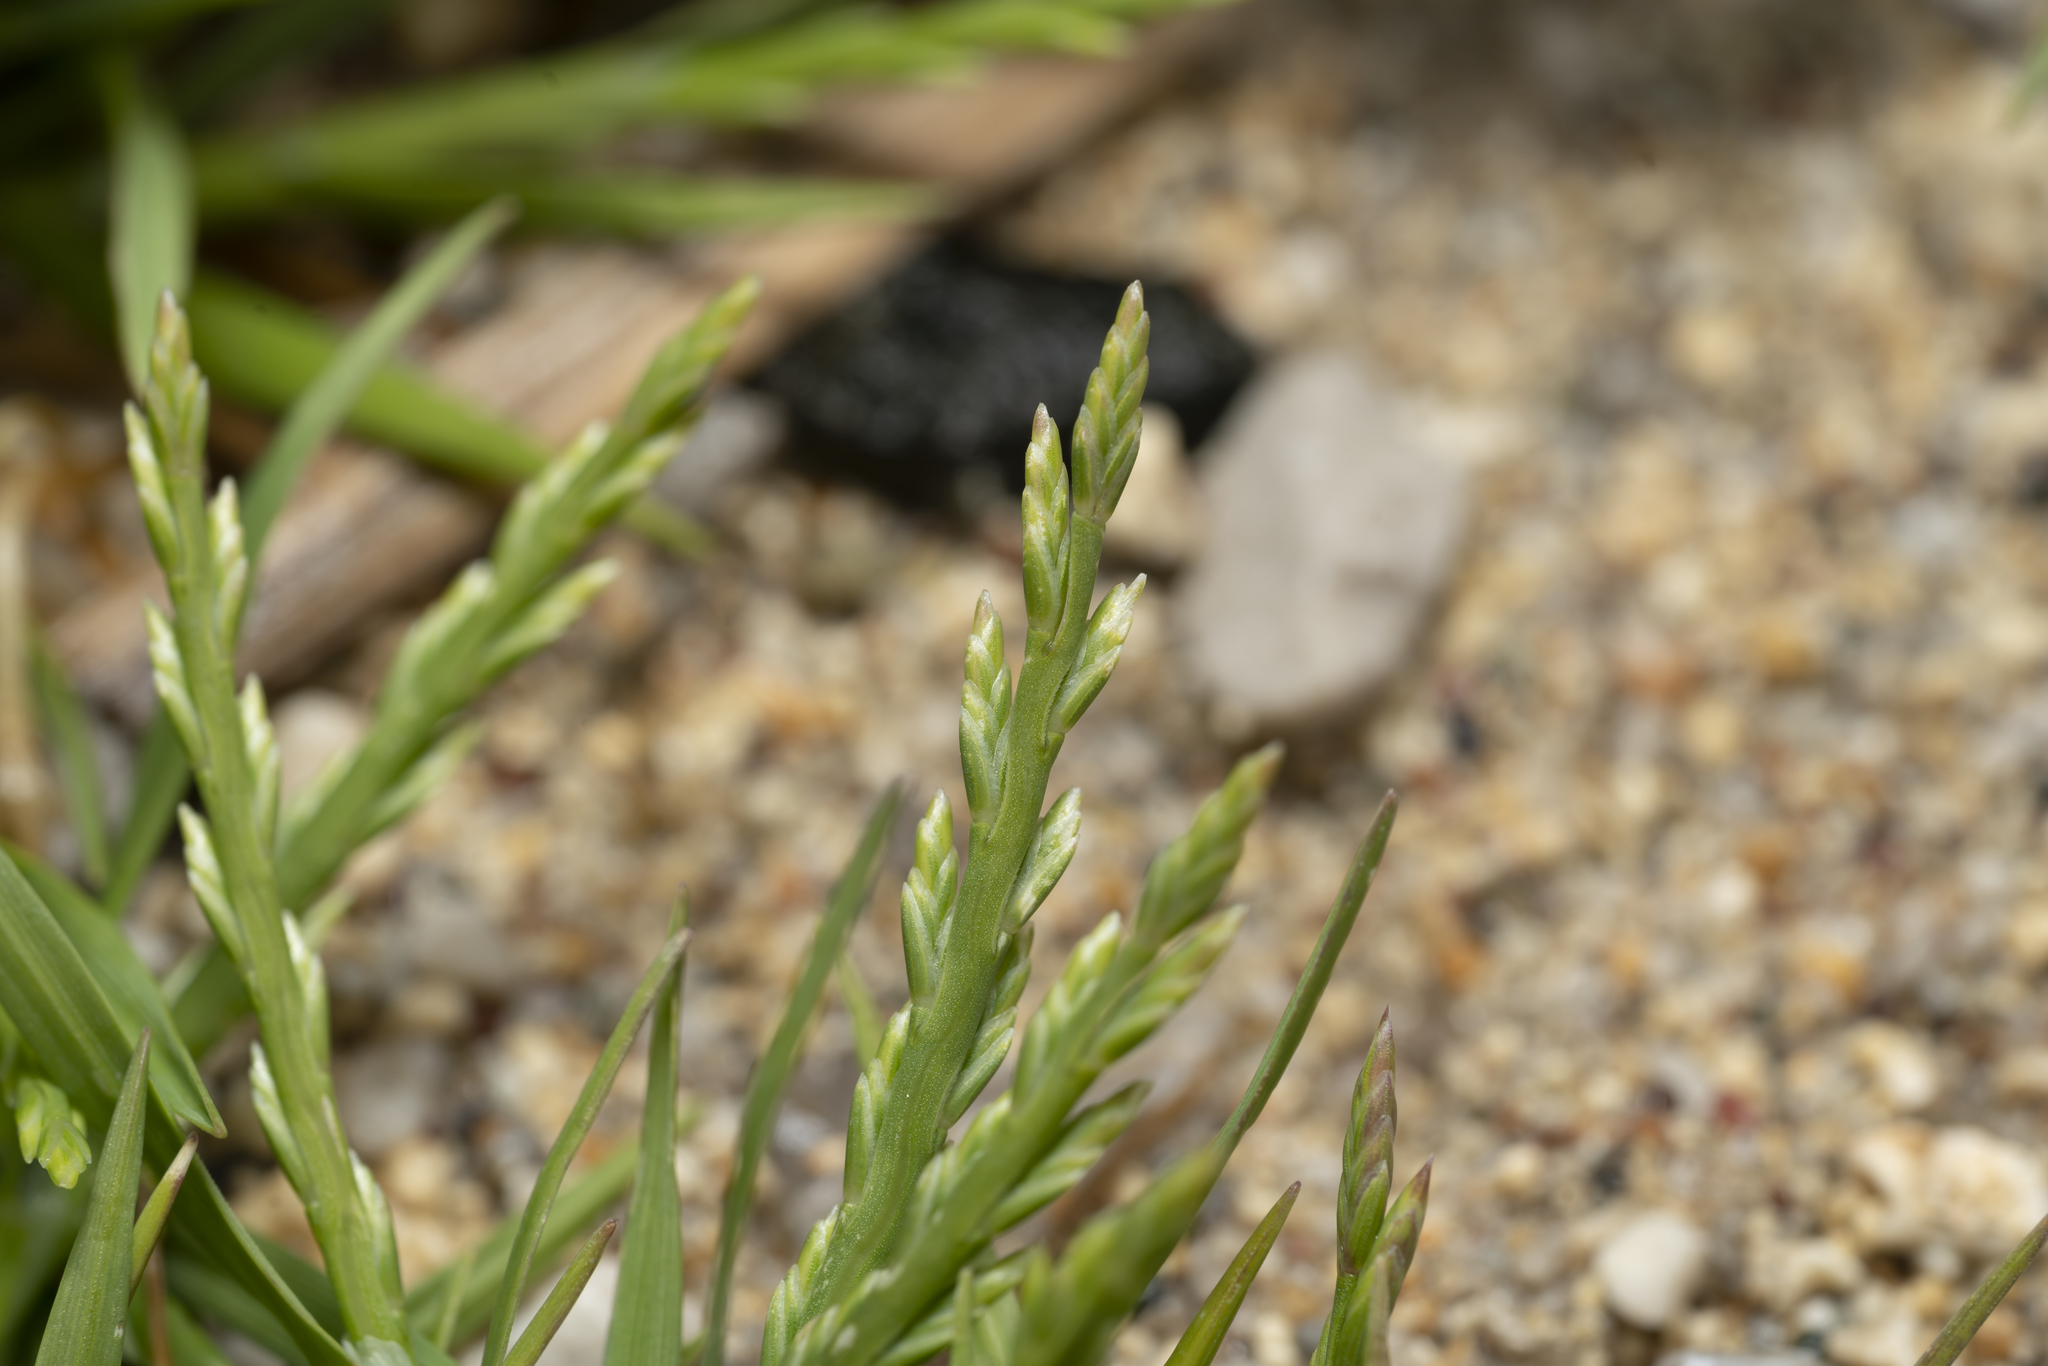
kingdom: Plantae
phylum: Tracheophyta
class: Liliopsida
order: Poales
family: Poaceae
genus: Catapodium
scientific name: Catapodium marinum
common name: Sea fern-grass
